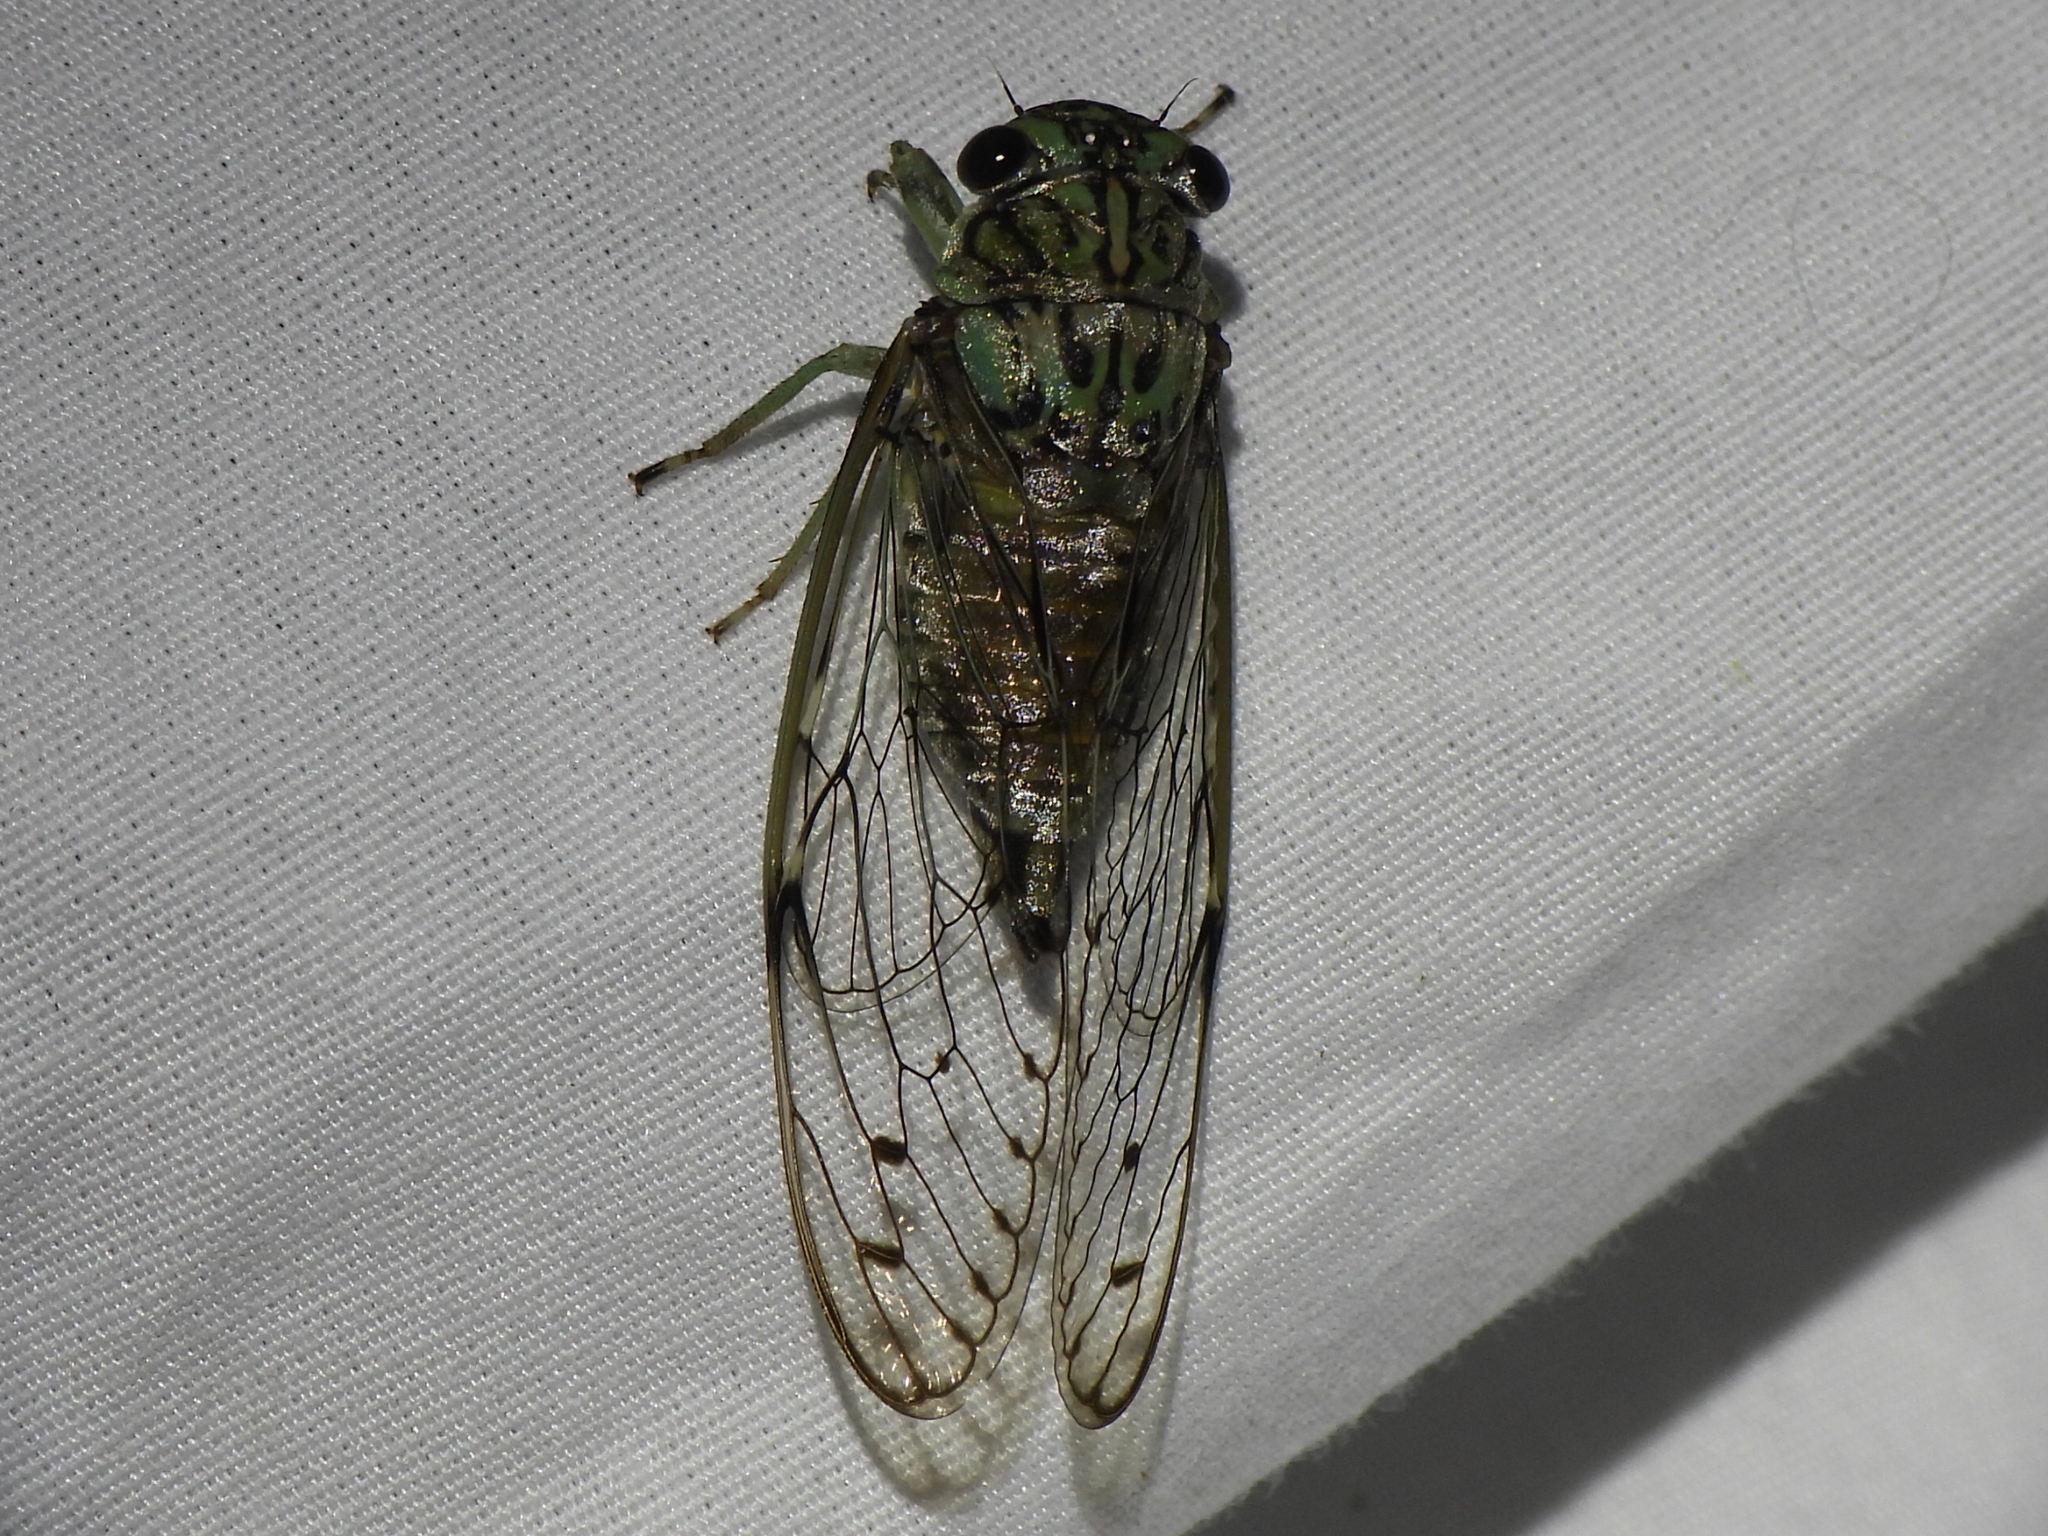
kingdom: Animalia
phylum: Arthropoda
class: Insecta
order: Hemiptera
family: Cicadidae
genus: Neocicada
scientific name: Neocicada hieroglyphica
